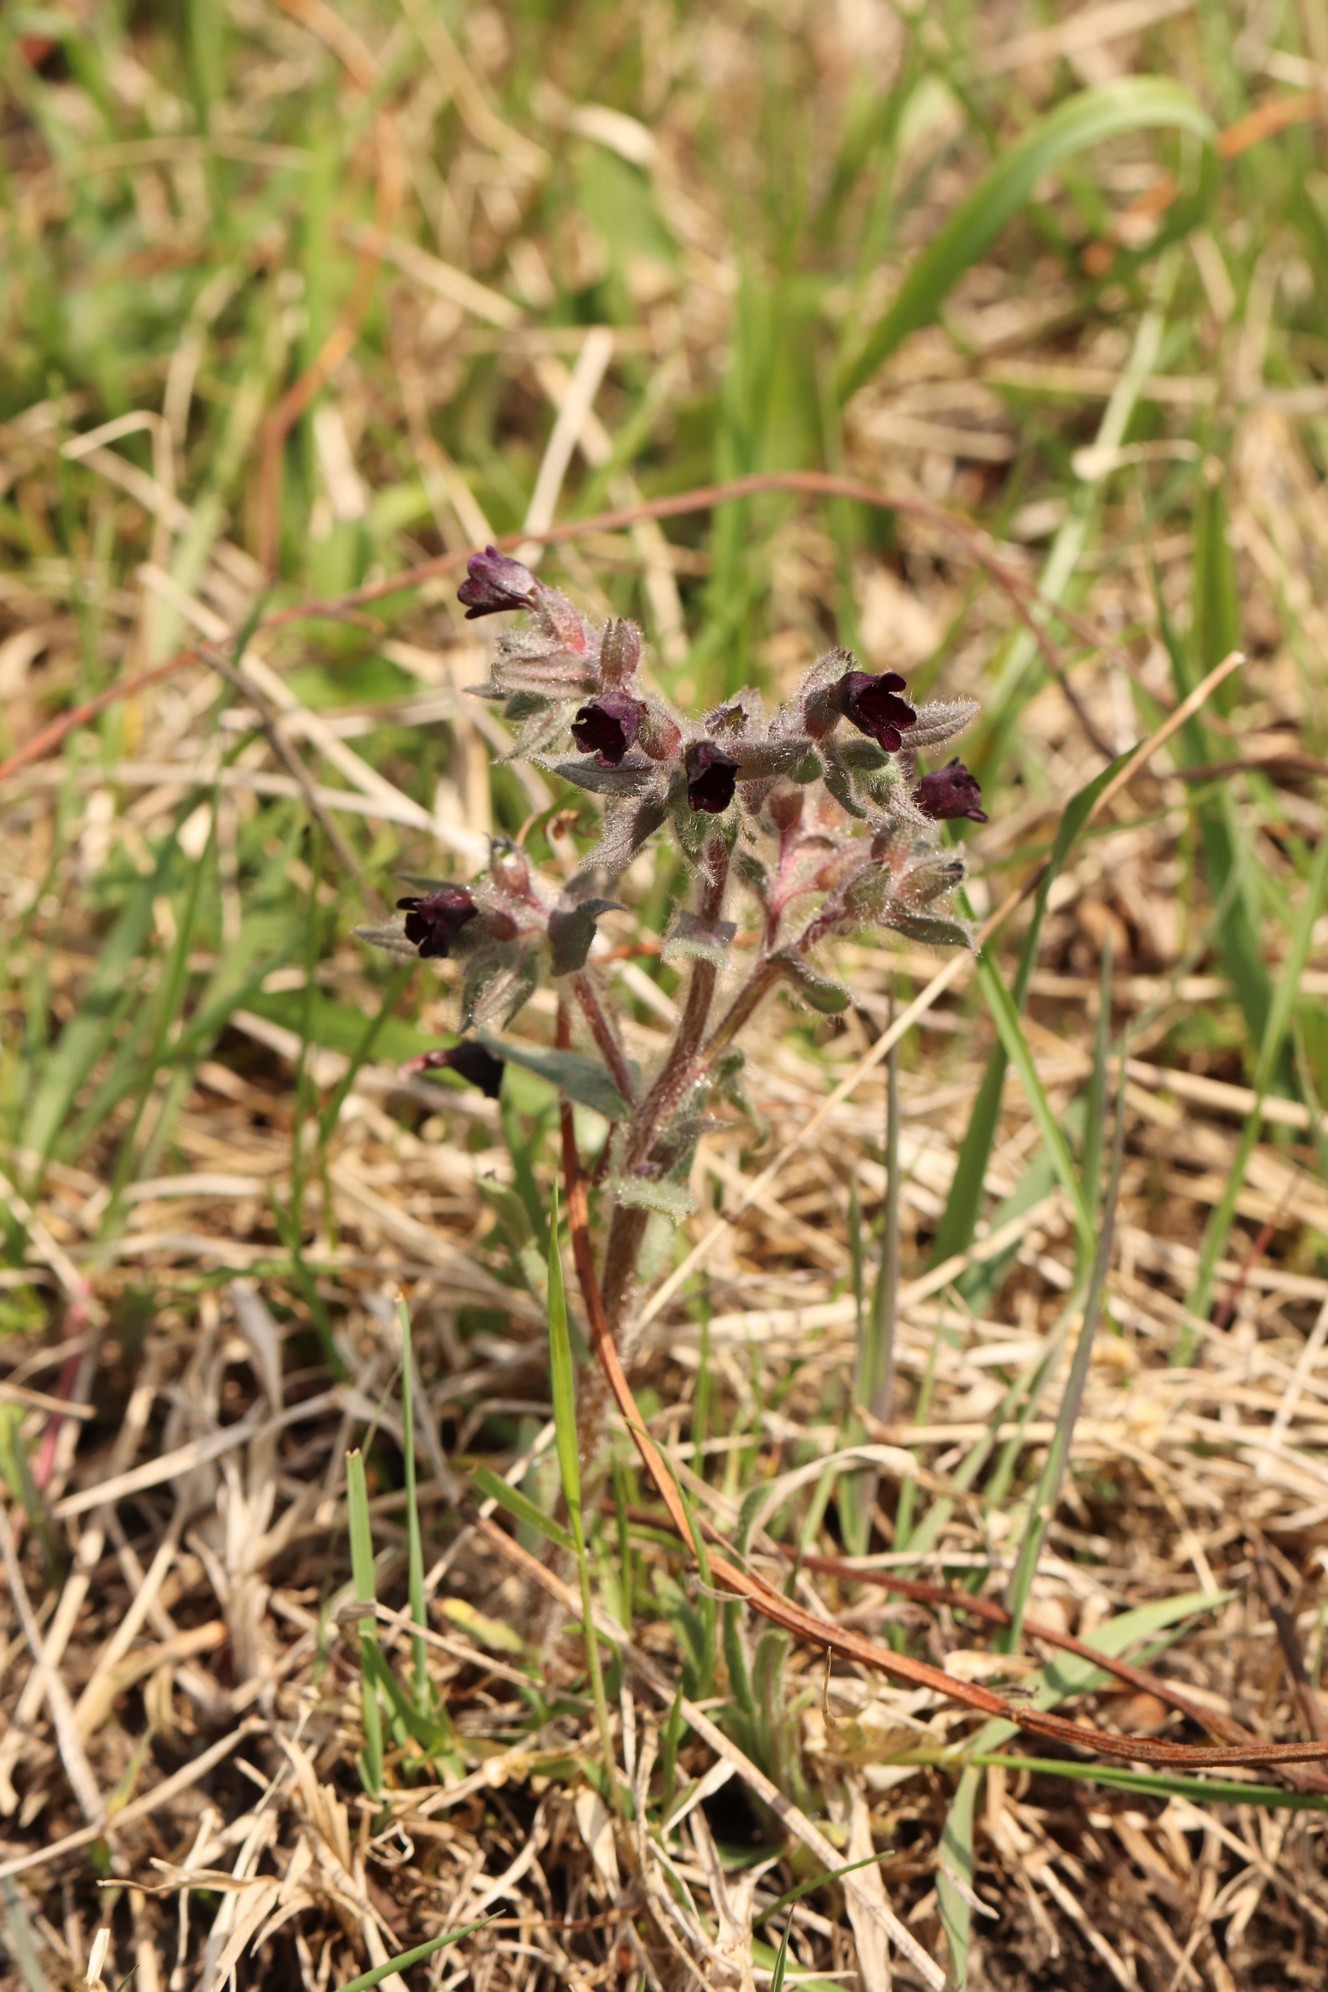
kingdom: Plantae
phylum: Tracheophyta
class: Magnoliopsida
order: Boraginales
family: Boraginaceae
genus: Nonea
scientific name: Nonea pulla
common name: Brown nonea
